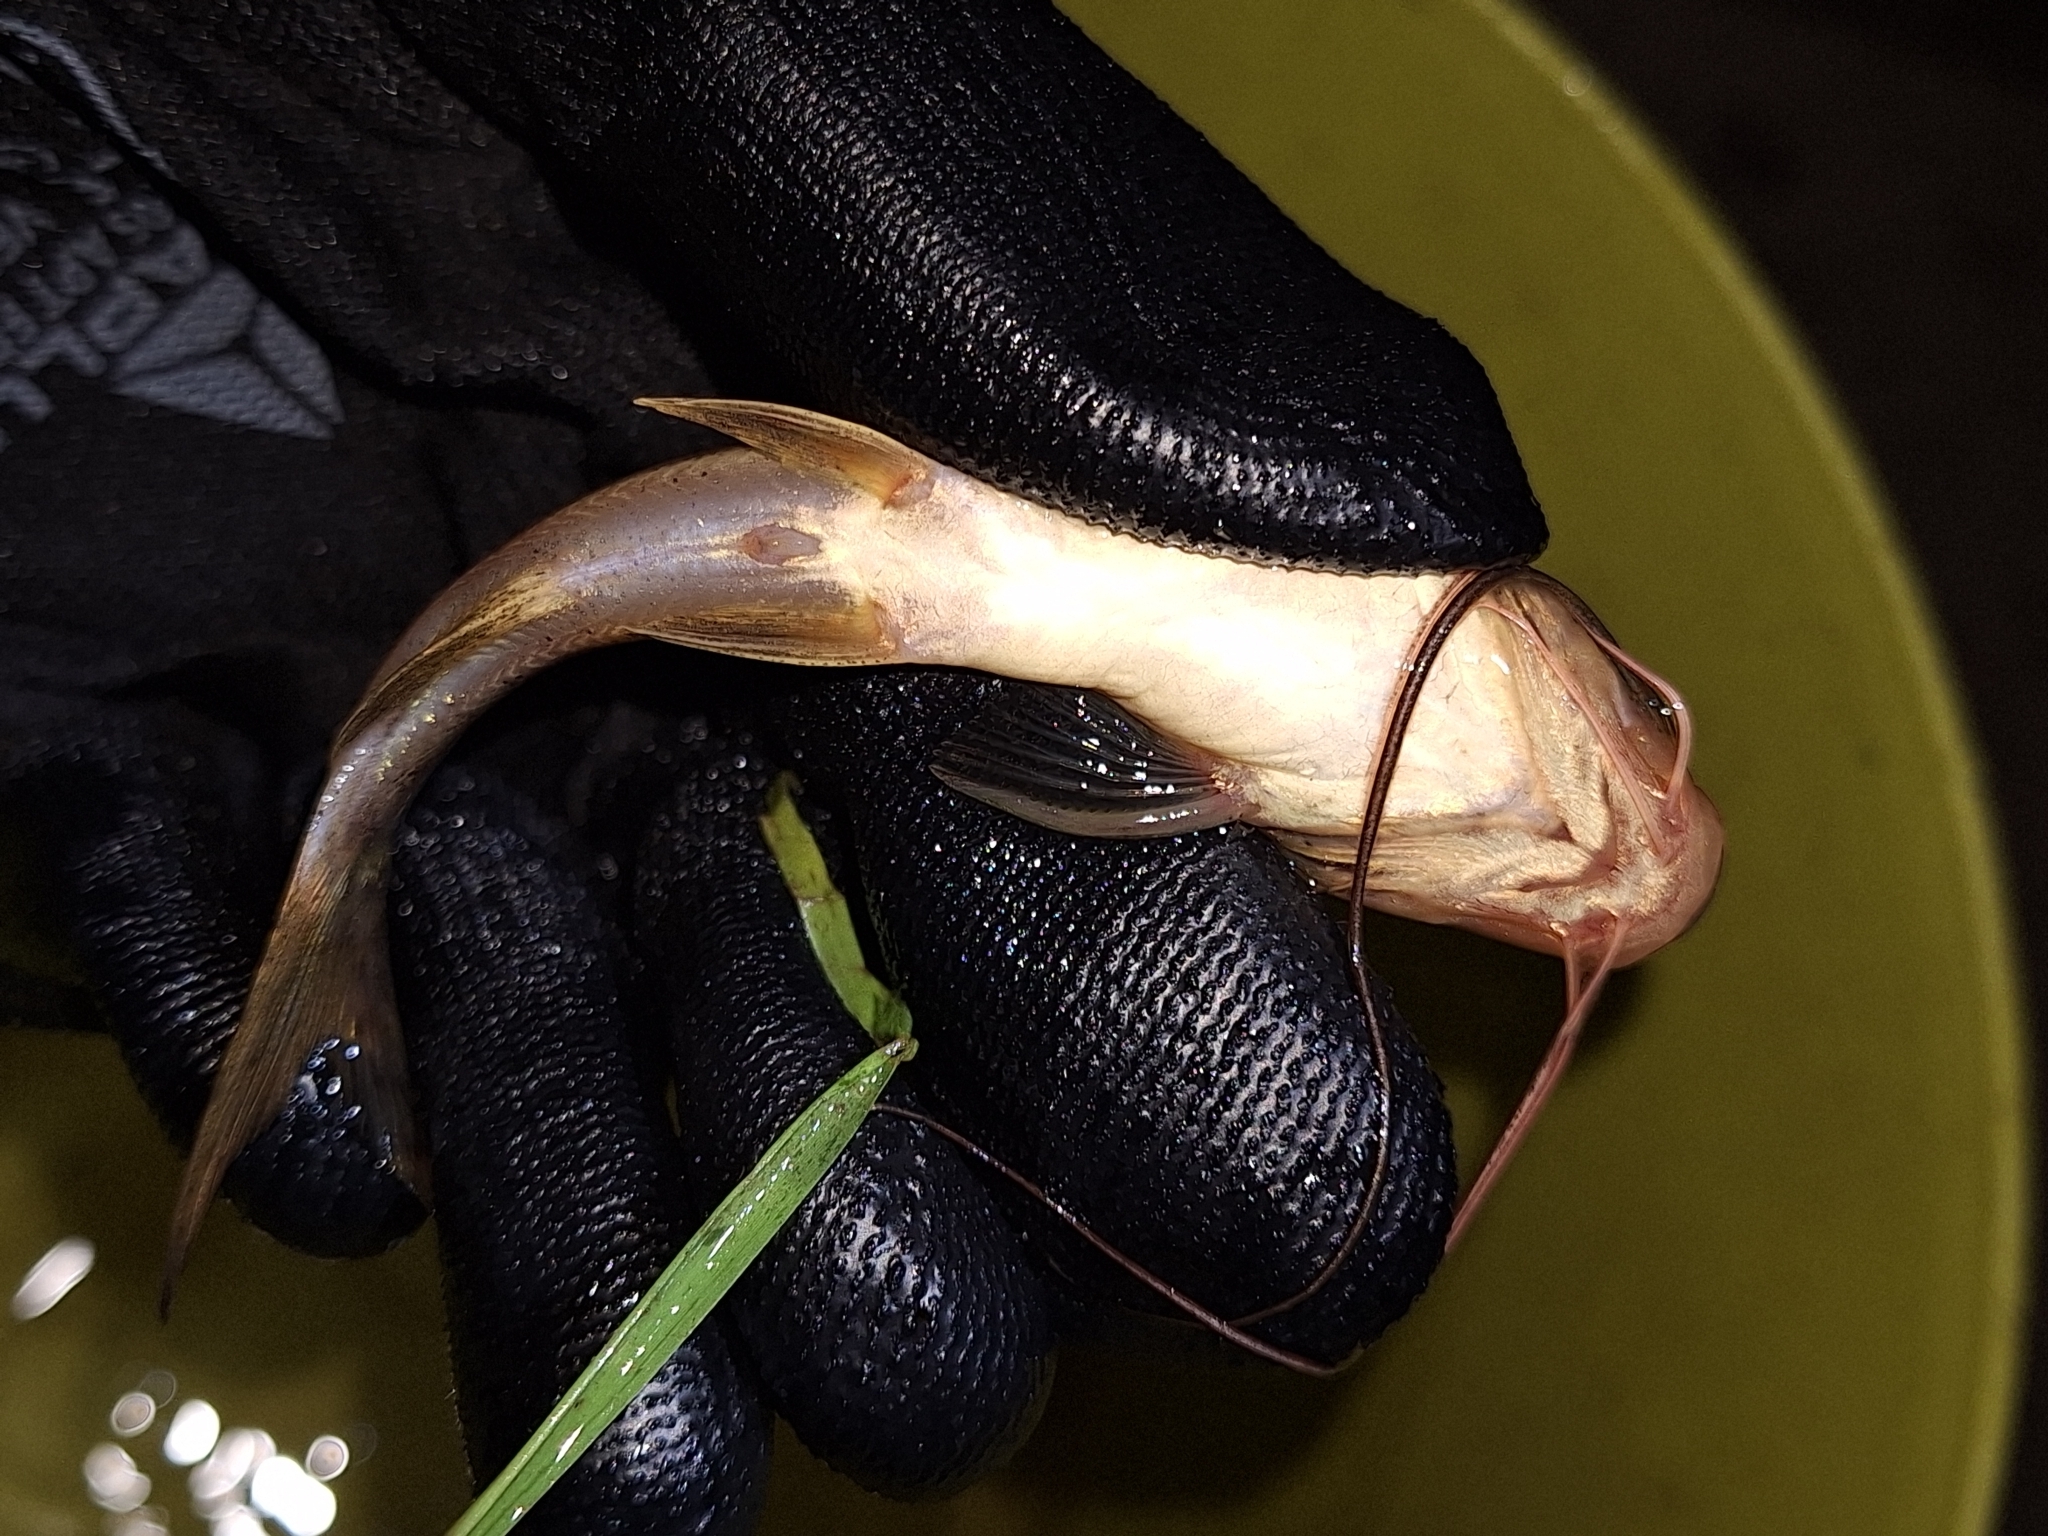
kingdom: Animalia
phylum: Chordata
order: Siluriformes
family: Pimelodidae
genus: Pimelodus
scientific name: Pimelodus maculatus
